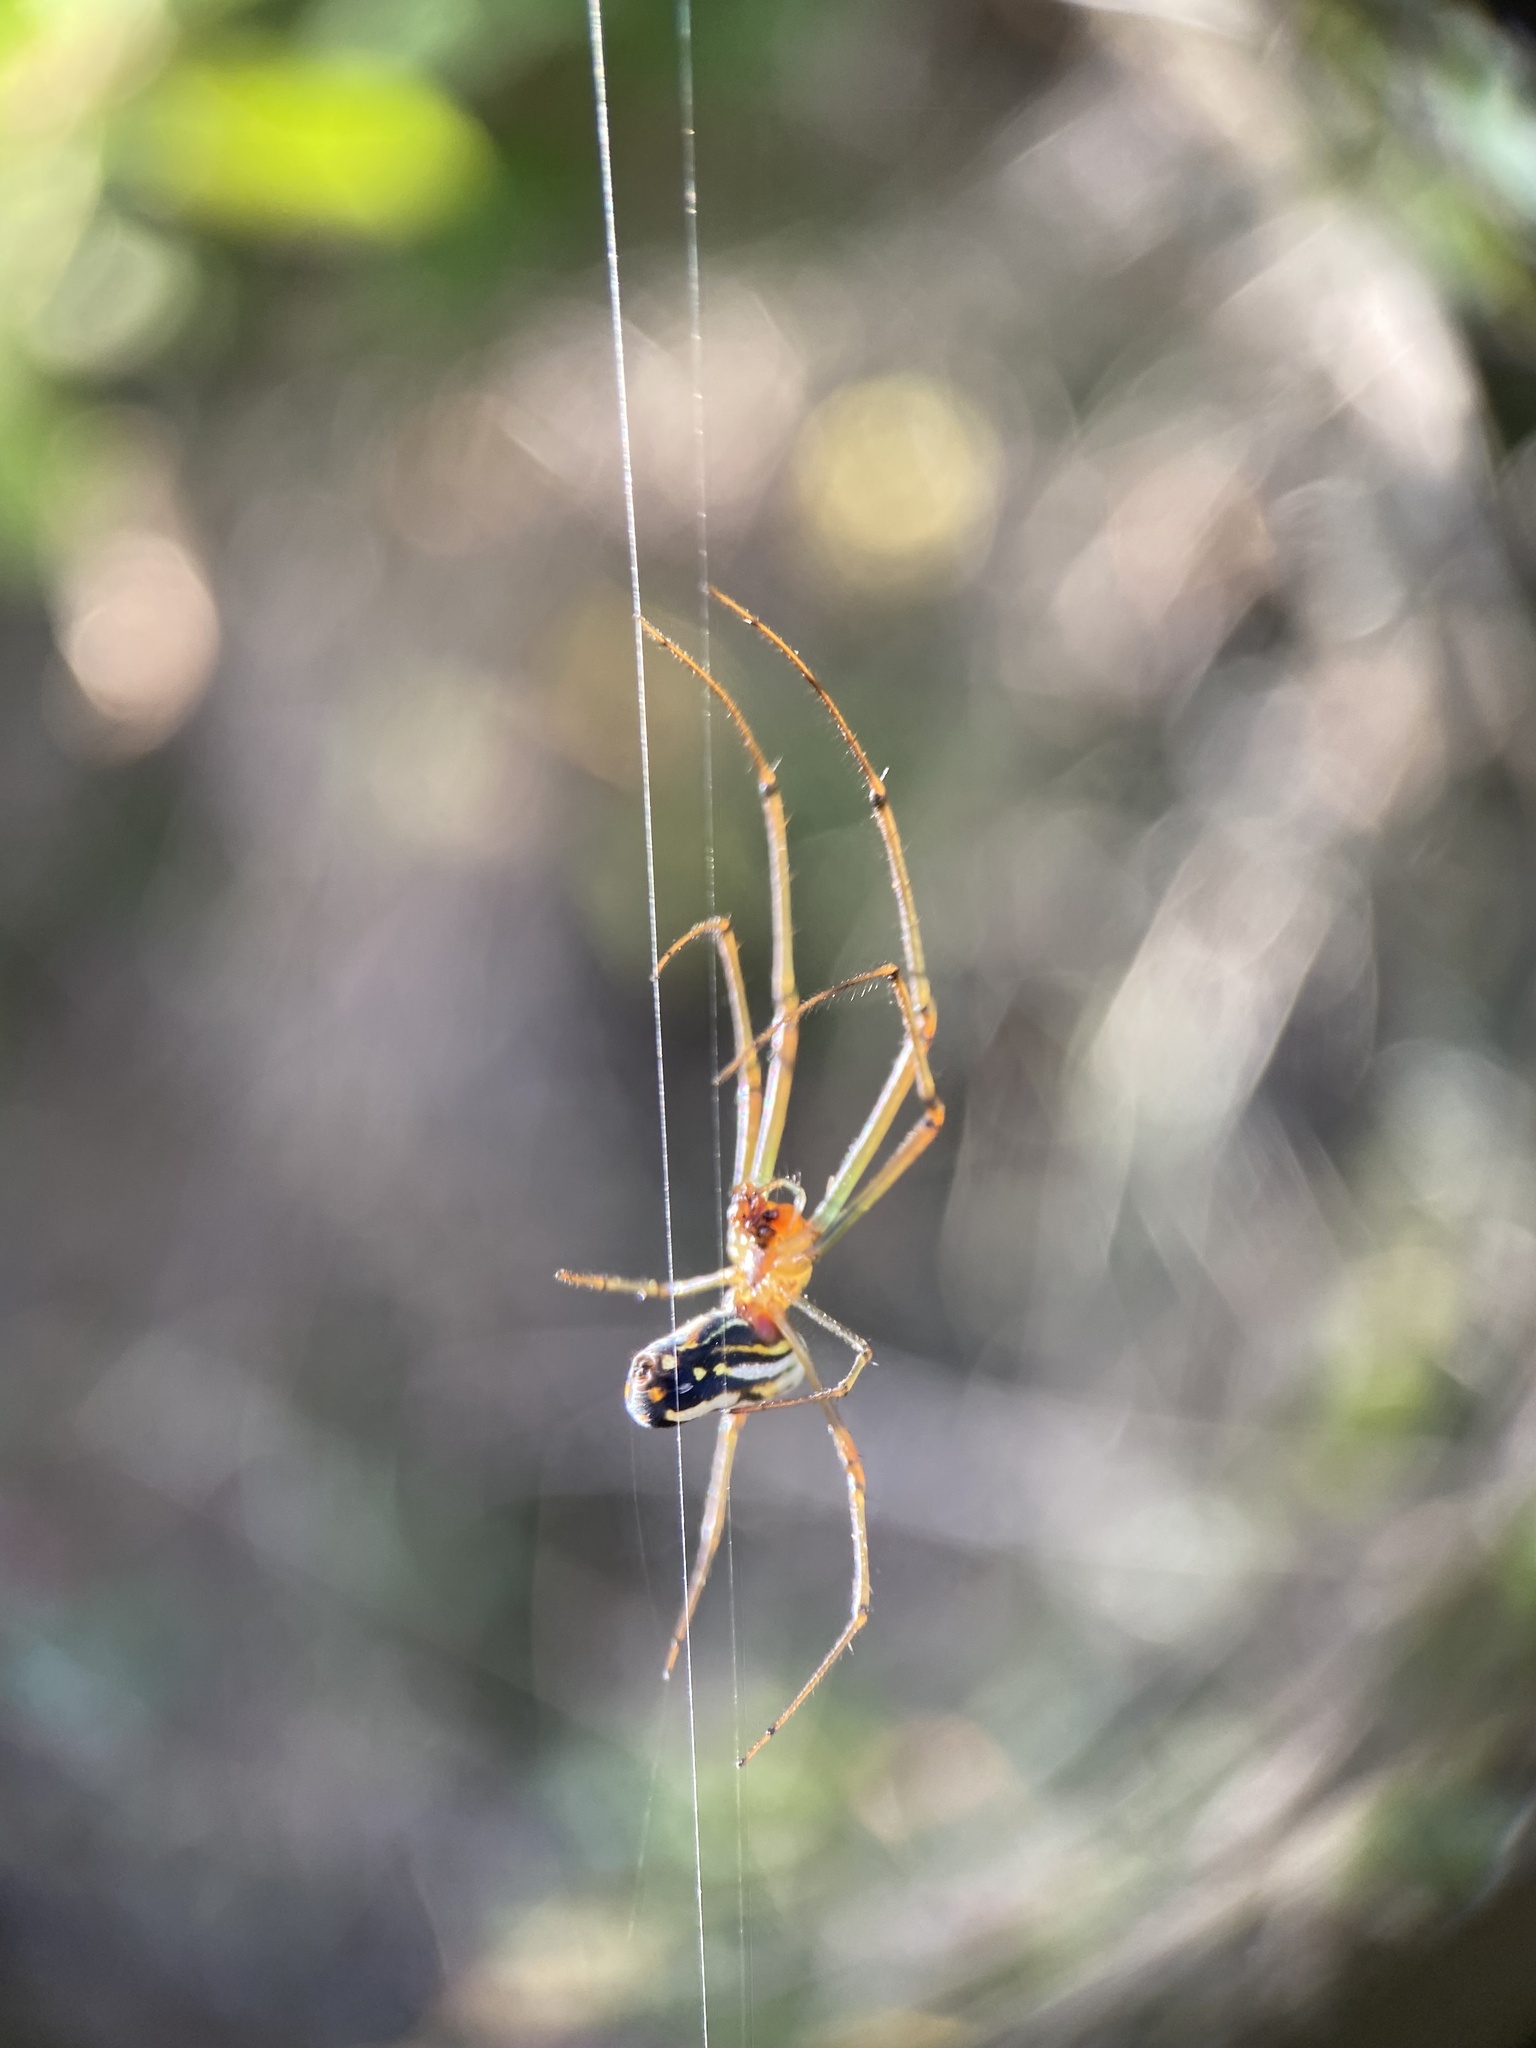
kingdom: Animalia
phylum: Arthropoda
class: Arachnida
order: Araneae
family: Tetragnathidae
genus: Leucauge
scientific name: Leucauge argyra
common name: Longjawed orb weavers
